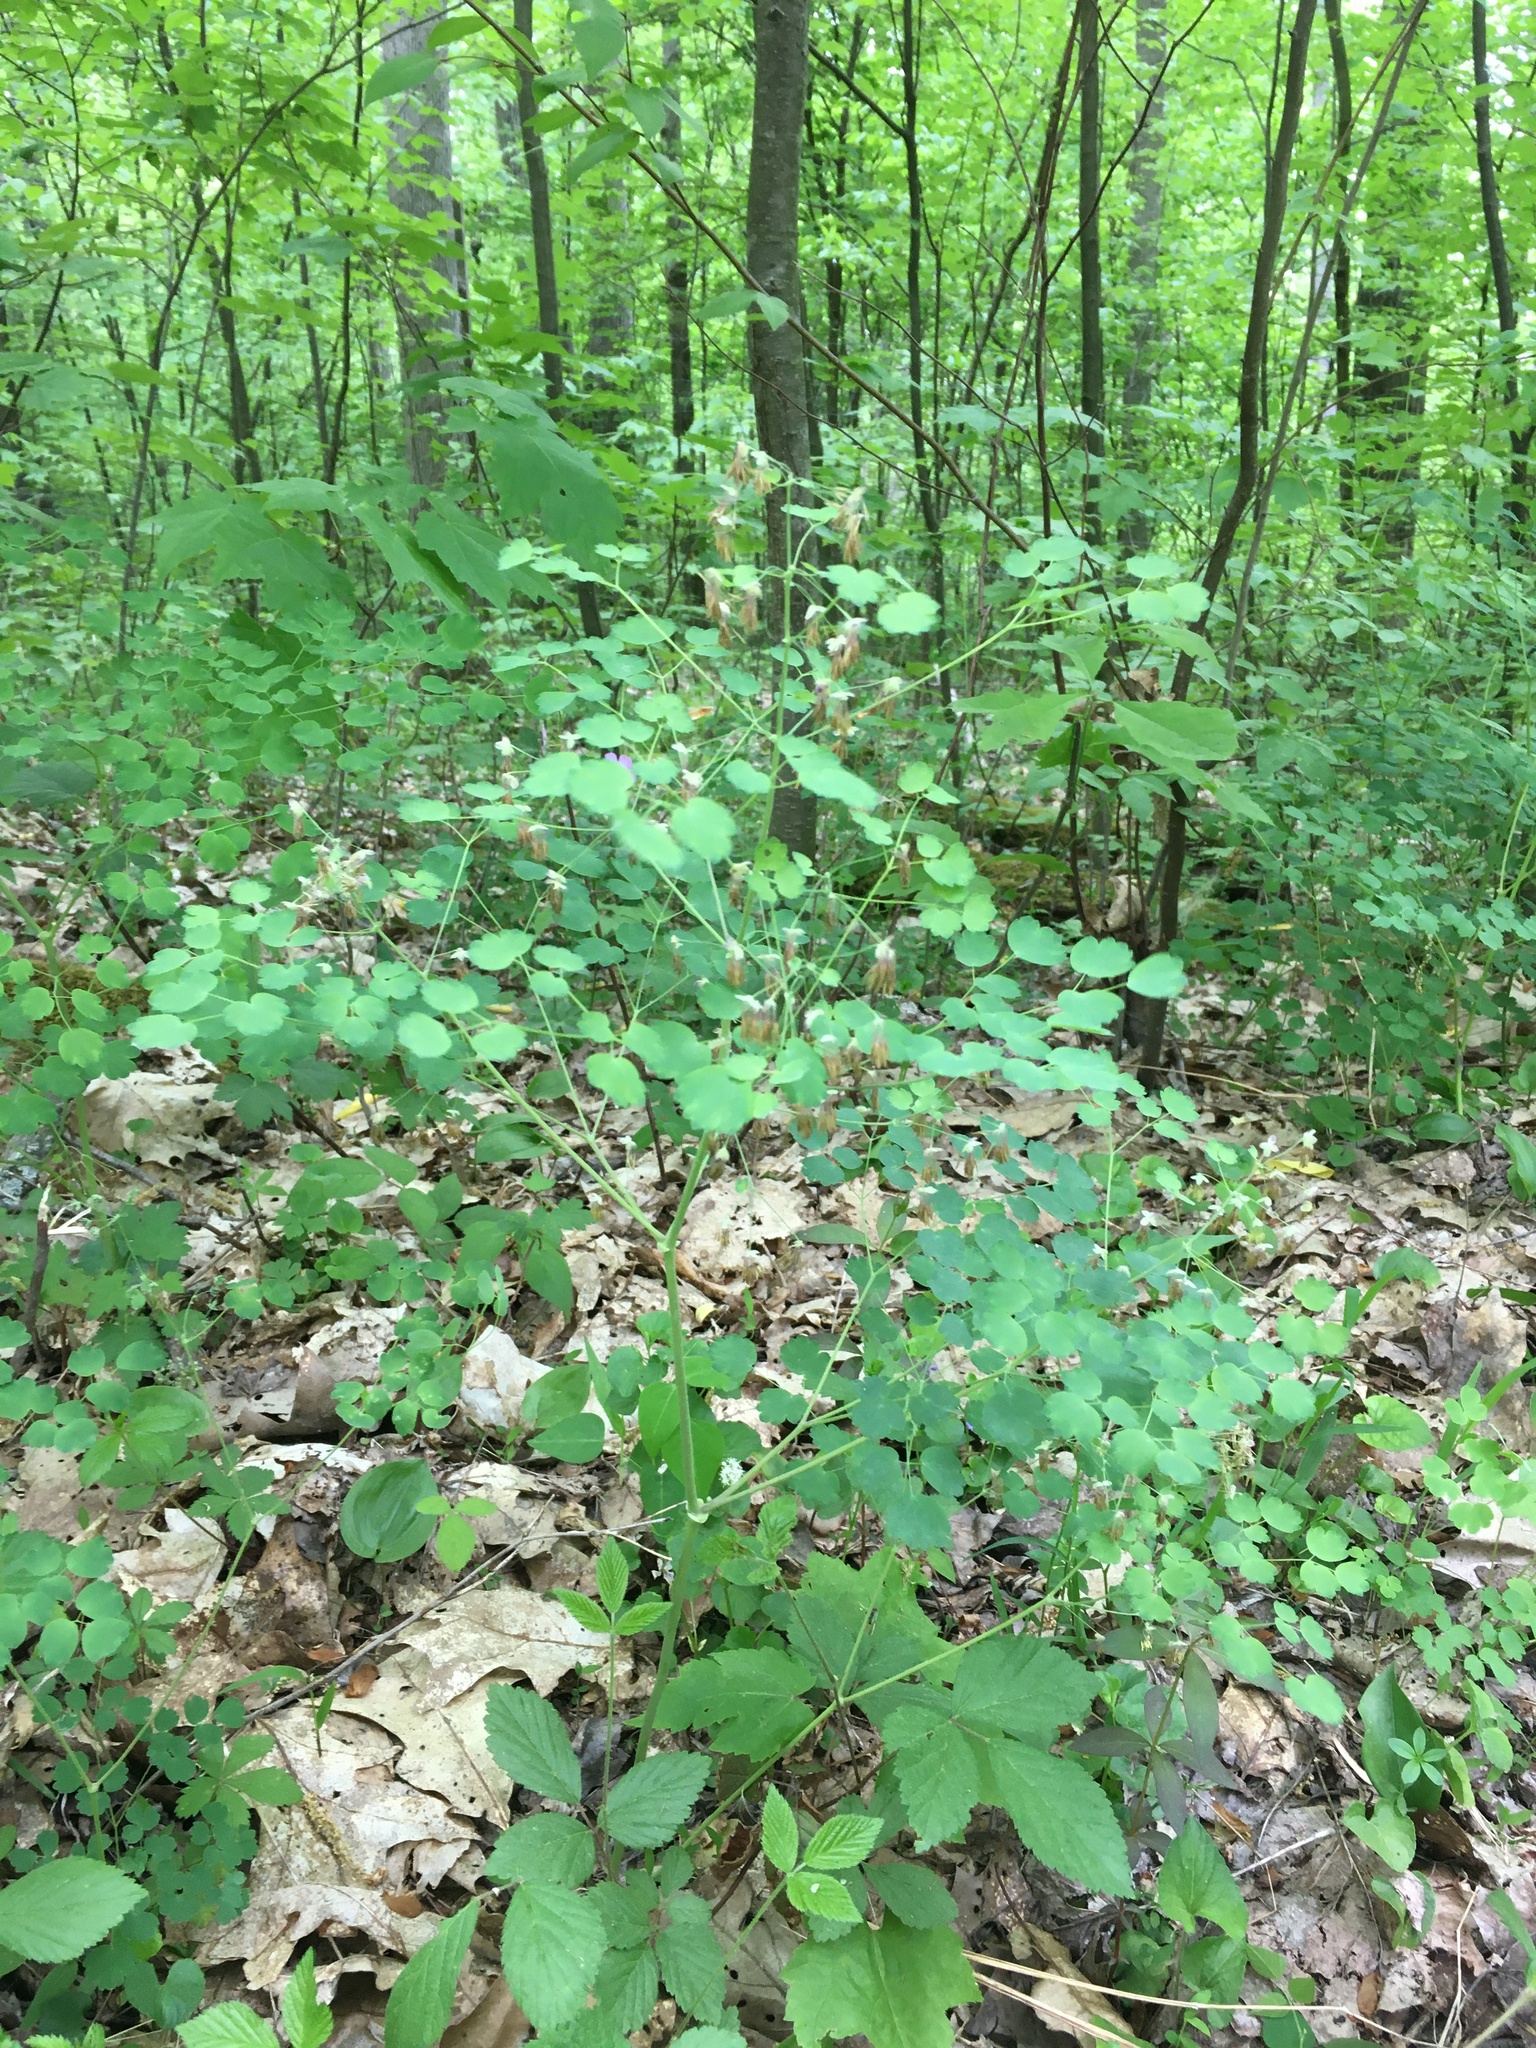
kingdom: Plantae
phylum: Tracheophyta
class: Magnoliopsida
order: Ranunculales
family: Ranunculaceae
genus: Thalictrum
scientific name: Thalictrum dioicum
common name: Early meadow-rue
